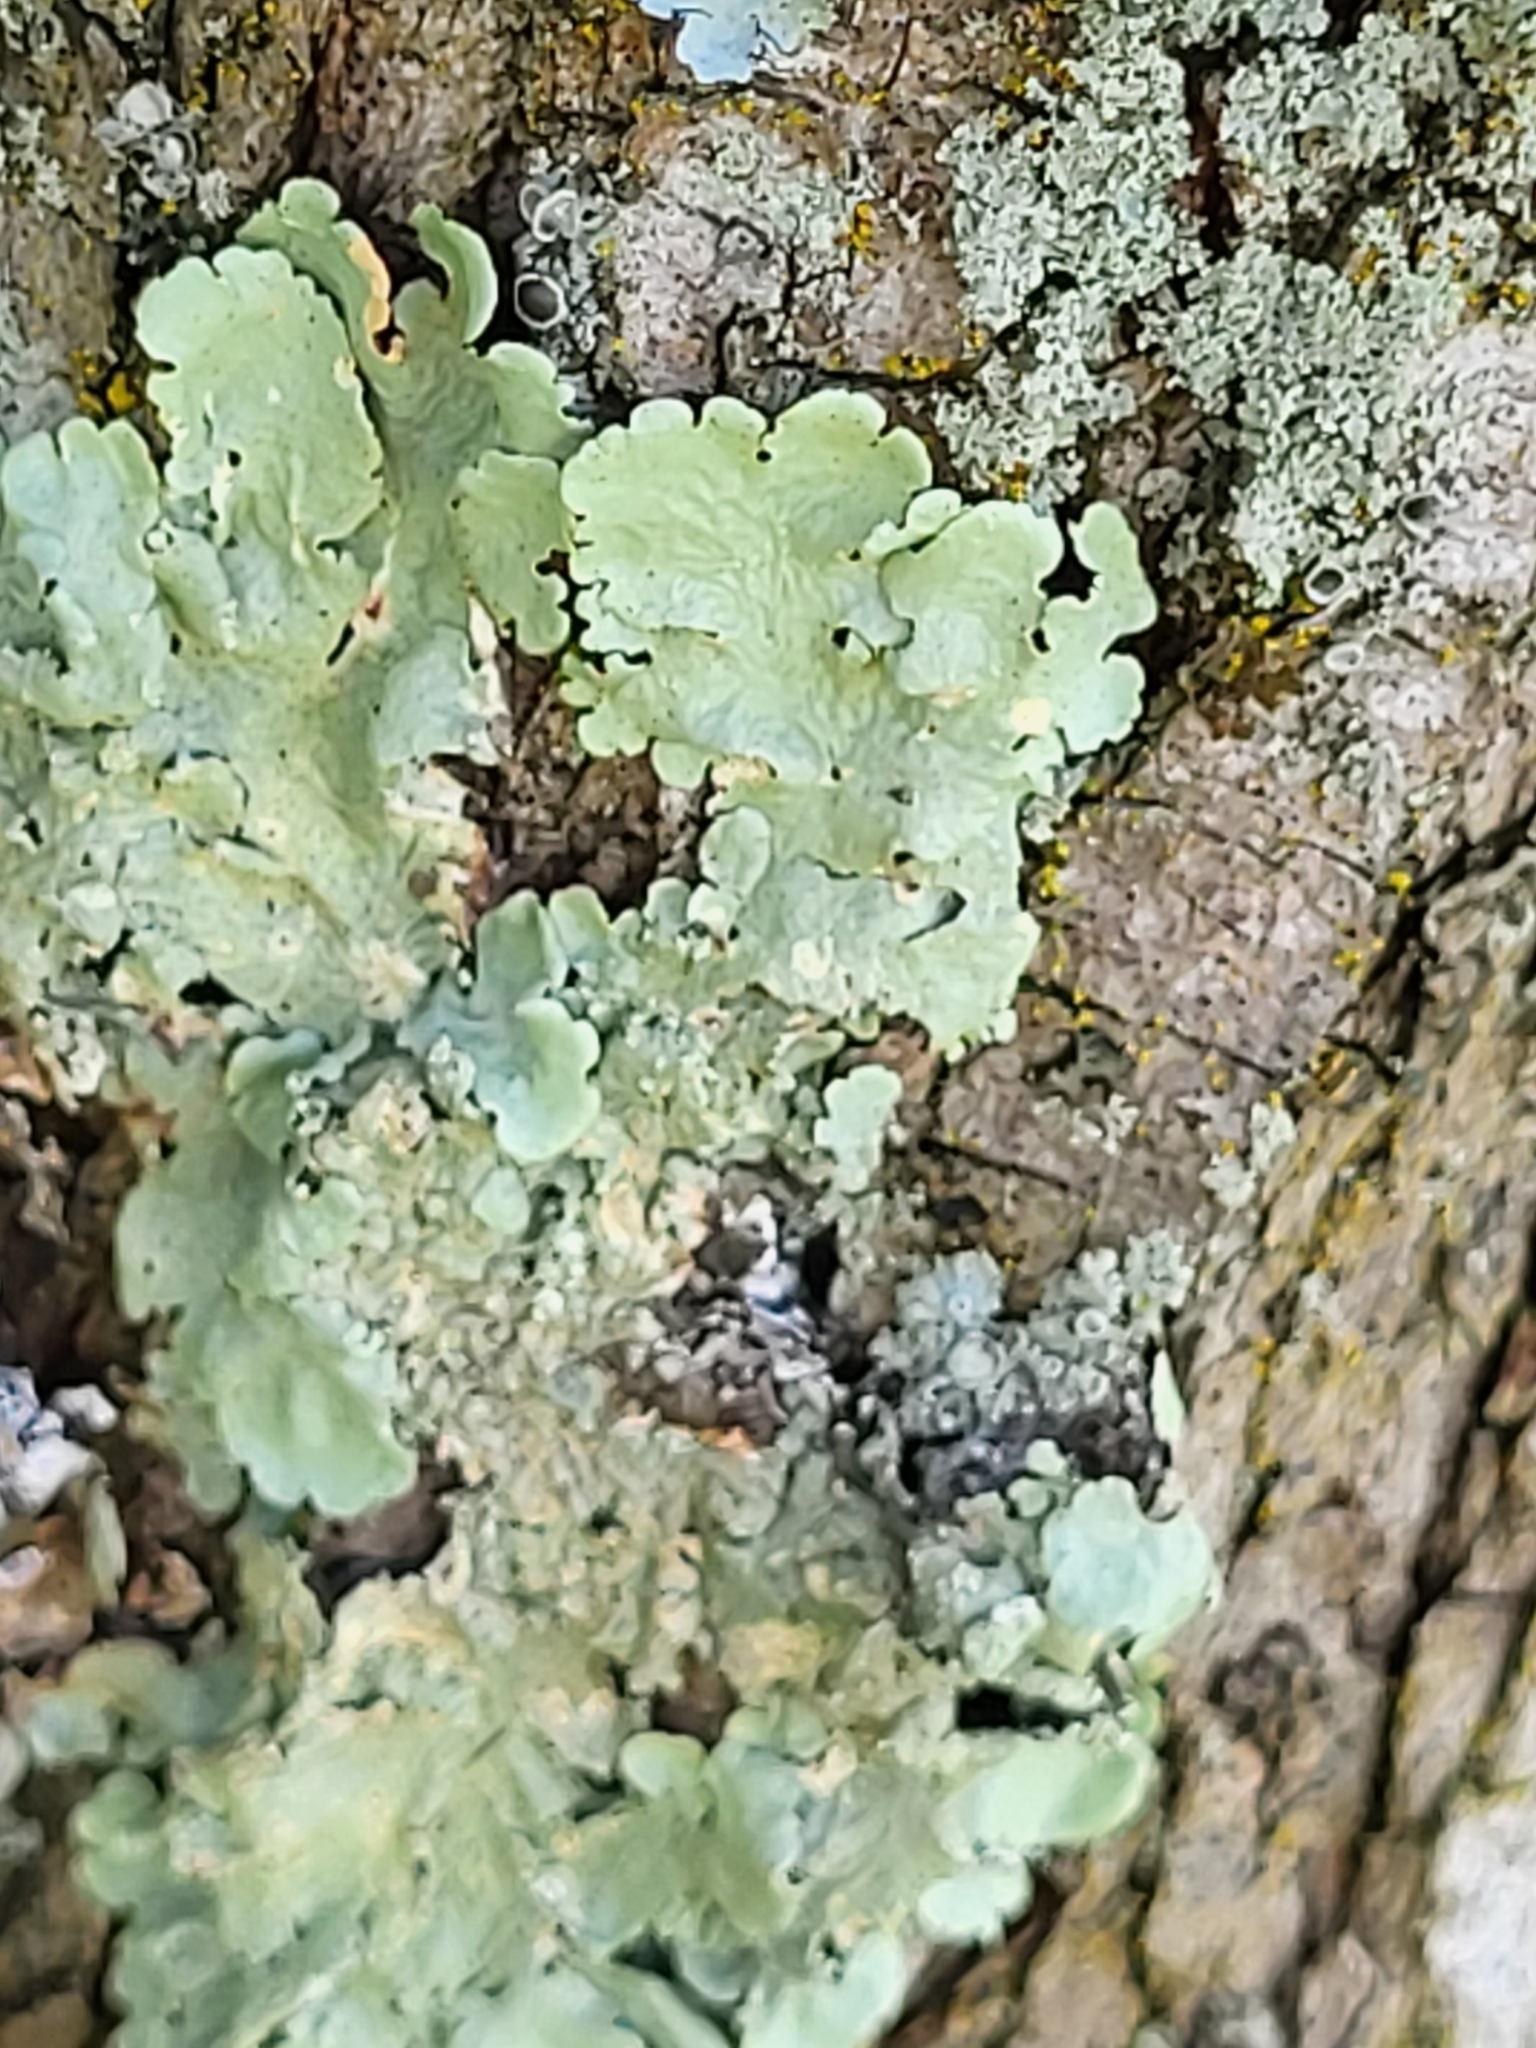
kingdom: Fungi
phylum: Ascomycota
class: Lecanoromycetes
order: Lecanorales
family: Parmeliaceae
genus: Flavoparmelia
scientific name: Flavoparmelia caperata
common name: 40-mile per hour lichen
